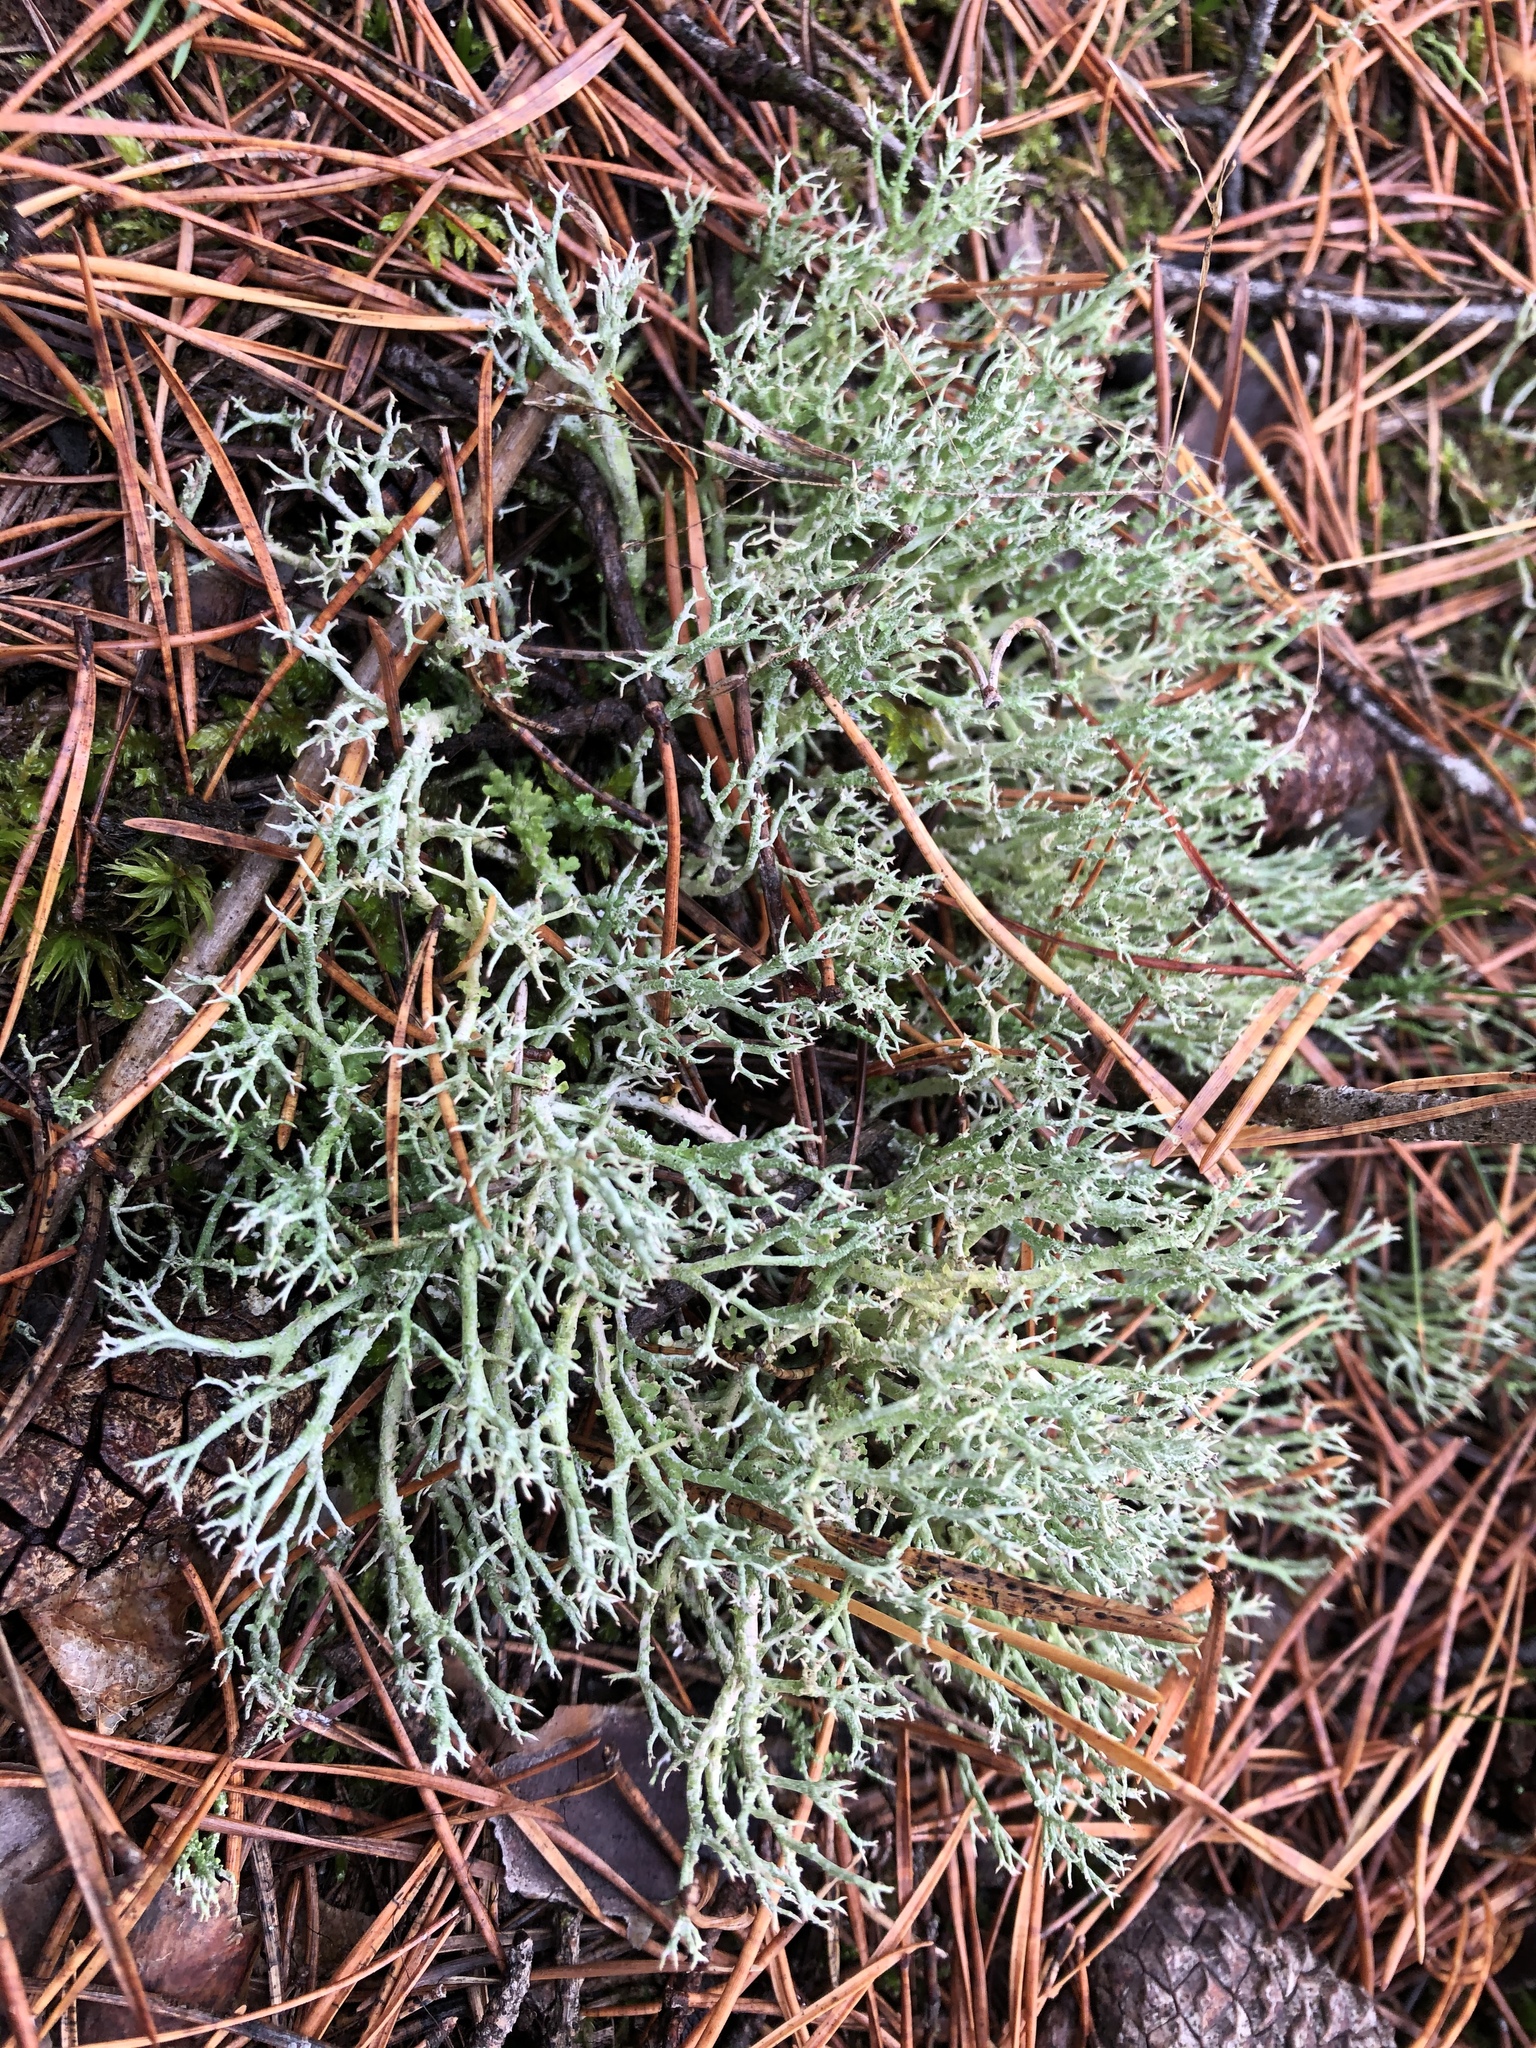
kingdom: Fungi
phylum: Ascomycota
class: Lecanoromycetes
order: Lecanorales
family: Cladoniaceae
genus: Cladonia
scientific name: Cladonia furcata
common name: Many-forked cladonia
